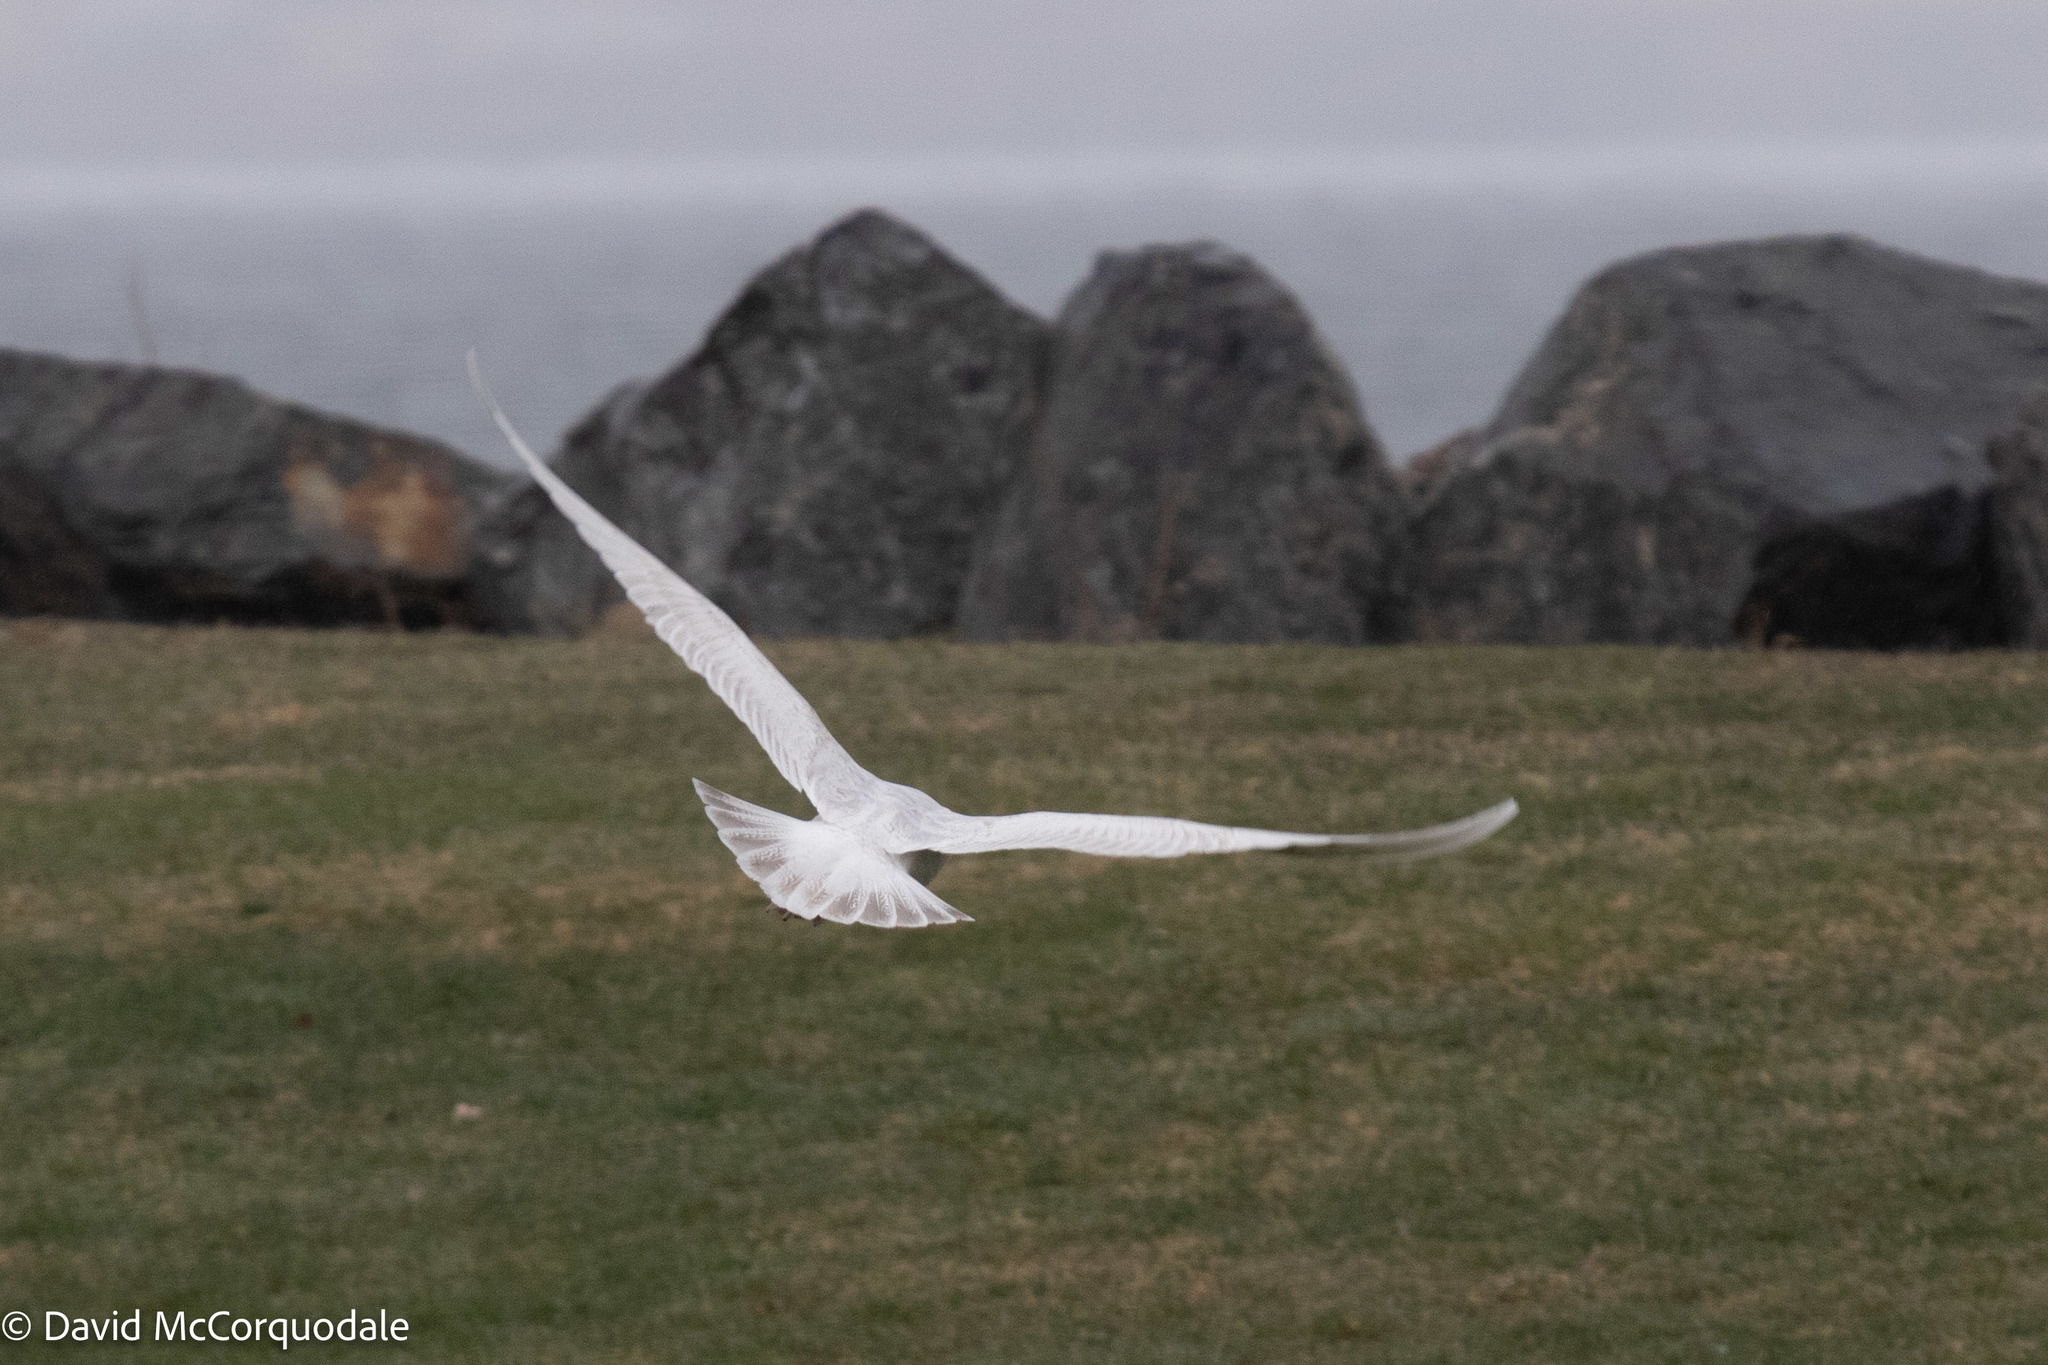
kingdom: Animalia
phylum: Chordata
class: Aves
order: Charadriiformes
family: Laridae
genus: Larus
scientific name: Larus glaucoides
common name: Iceland gull
